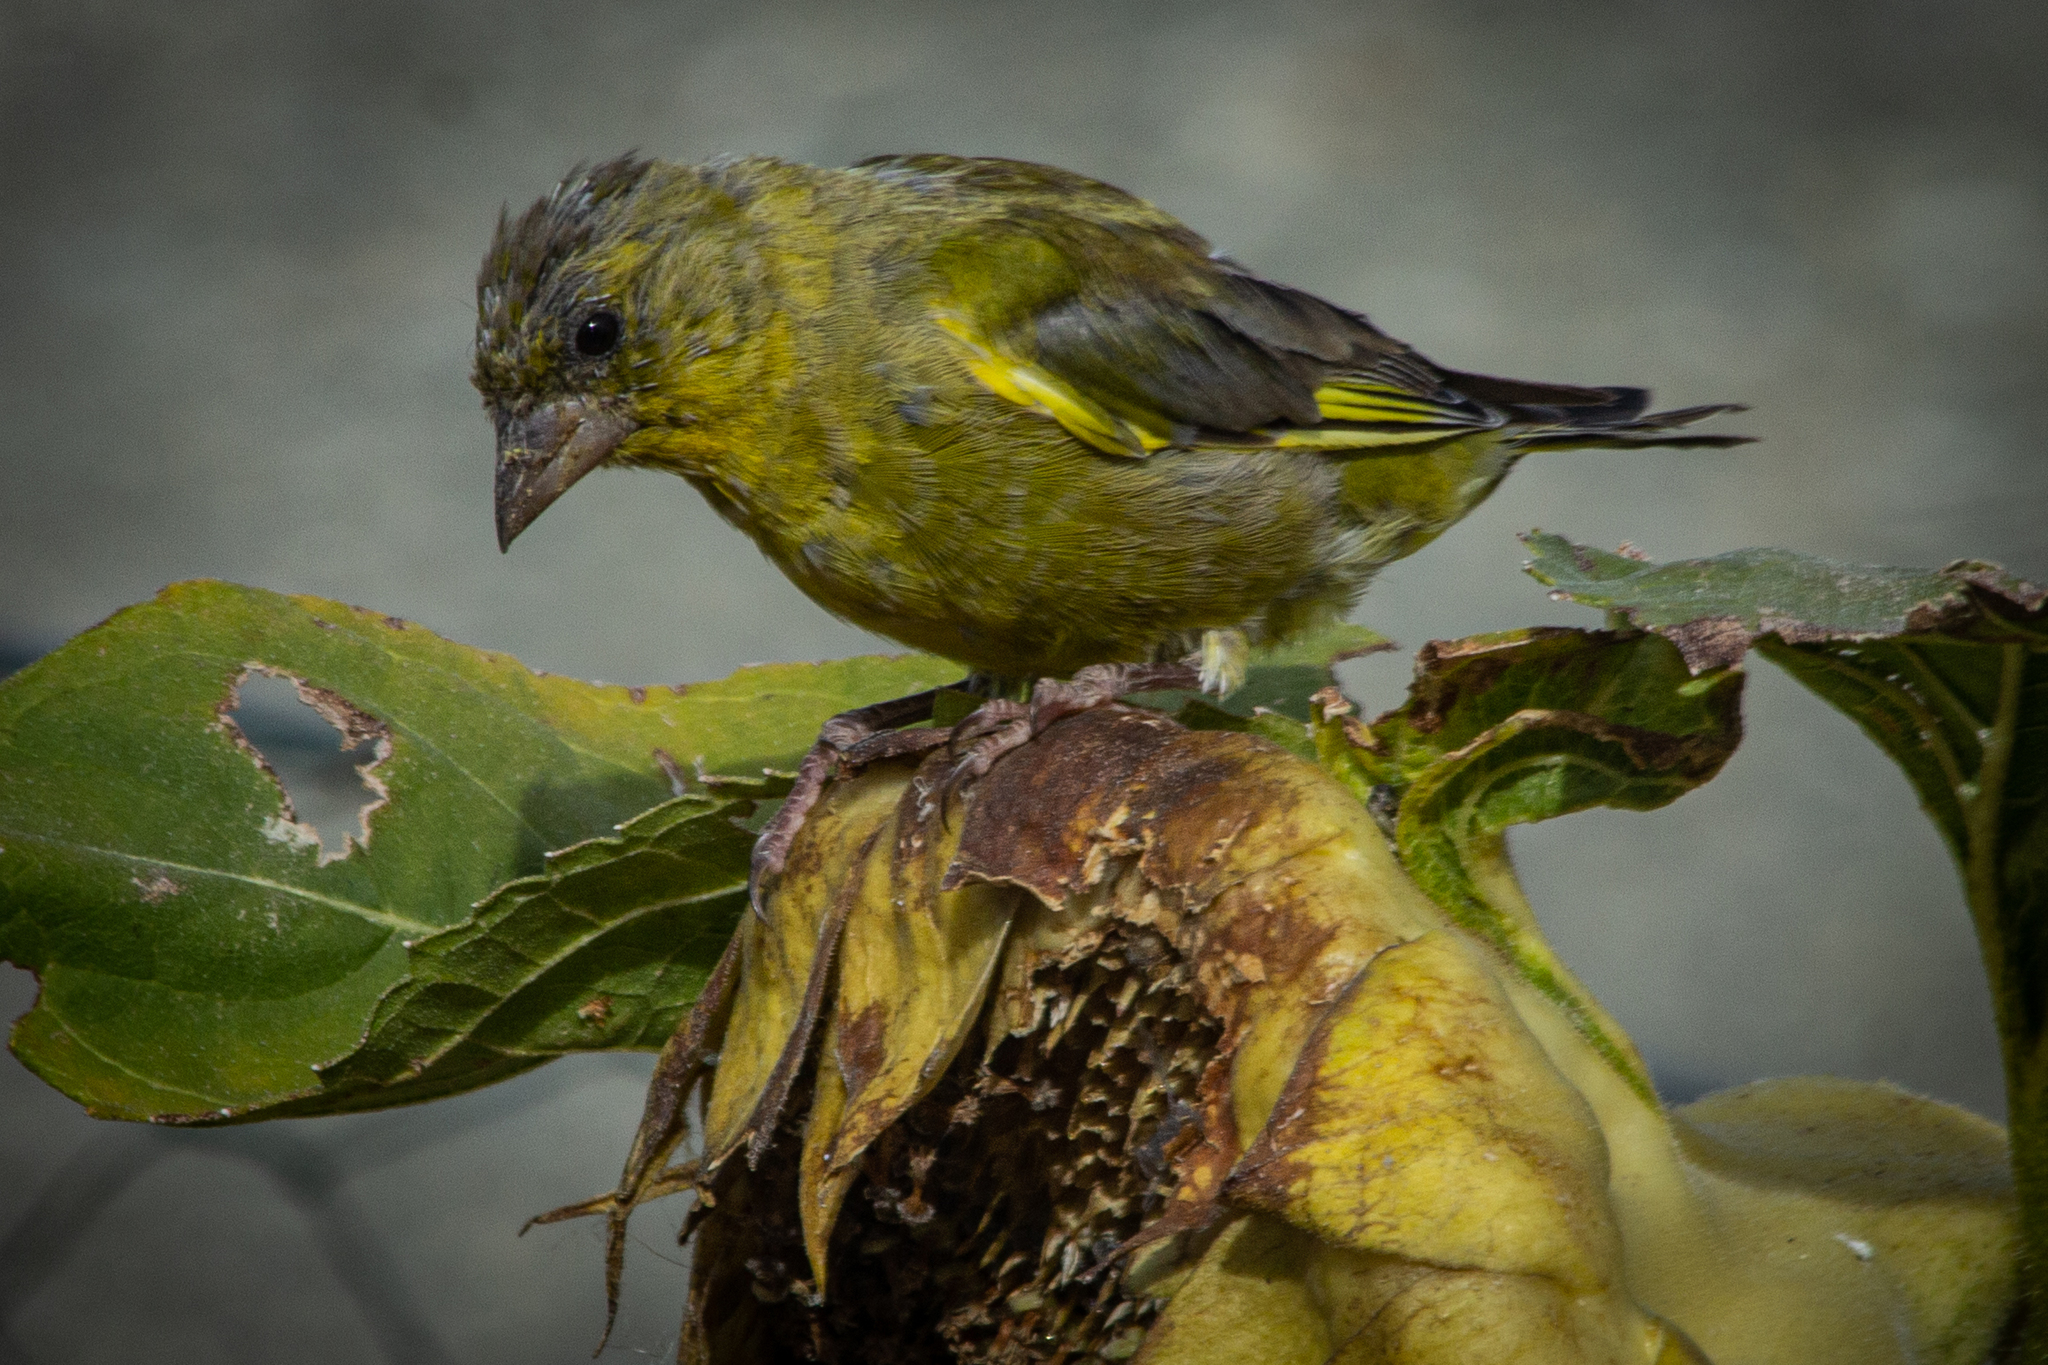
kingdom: Plantae
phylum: Tracheophyta
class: Liliopsida
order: Poales
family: Poaceae
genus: Chloris
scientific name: Chloris chloris
